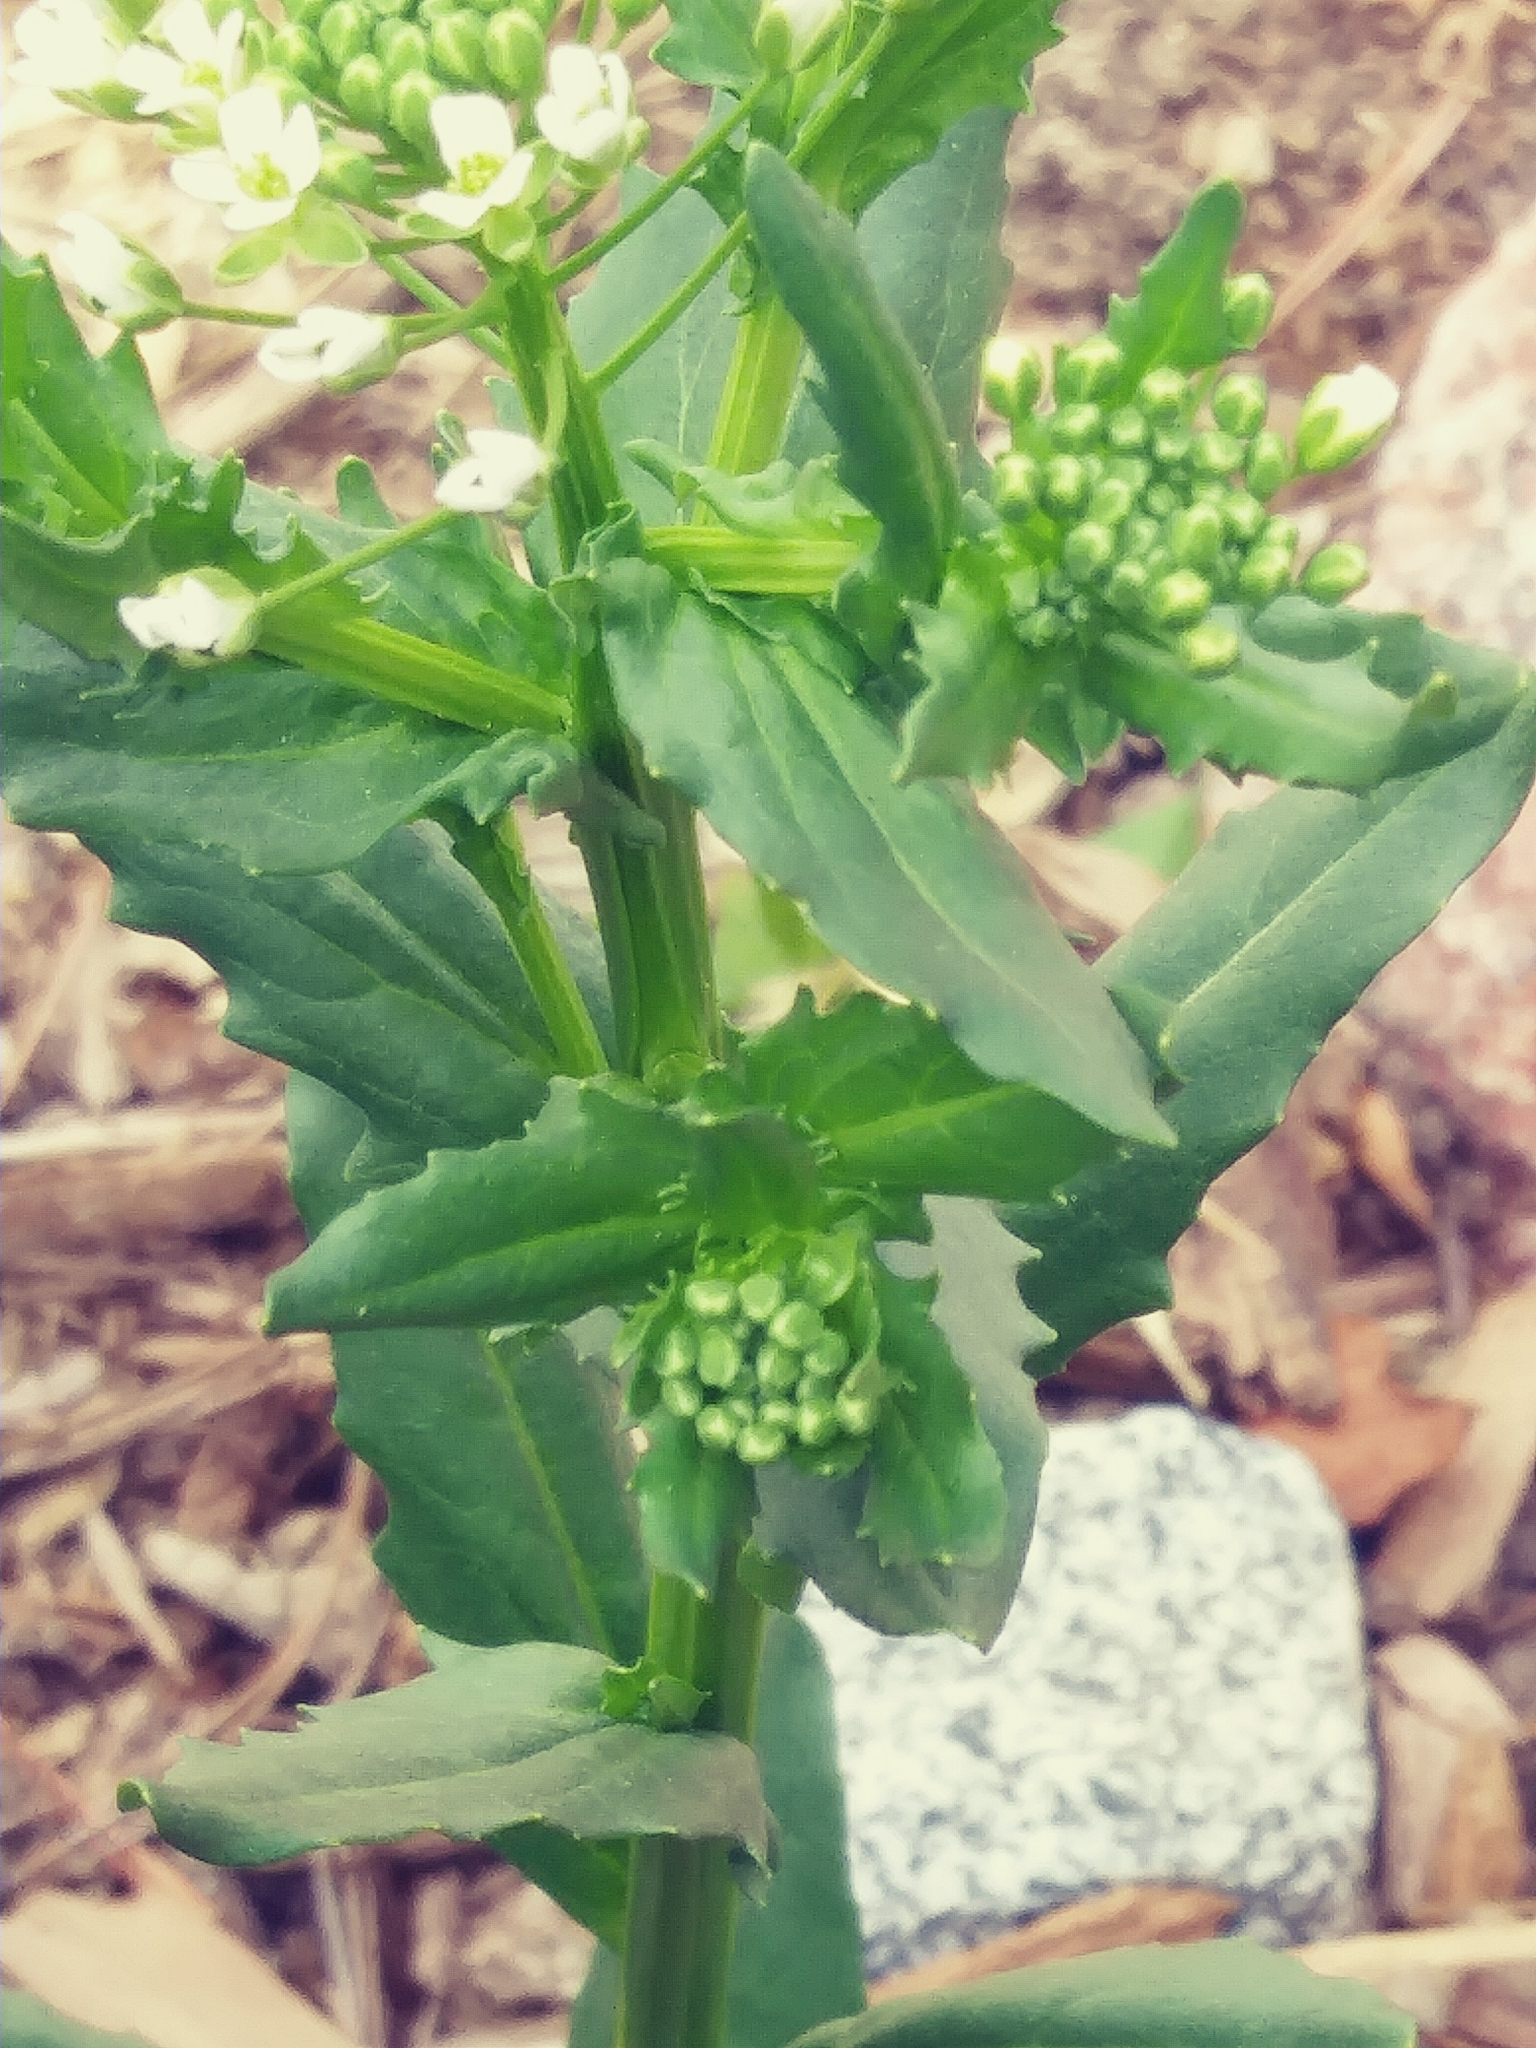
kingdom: Plantae
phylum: Tracheophyta
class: Magnoliopsida
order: Brassicales
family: Brassicaceae
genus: Thlaspi
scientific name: Thlaspi arvense
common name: Field pennycress
